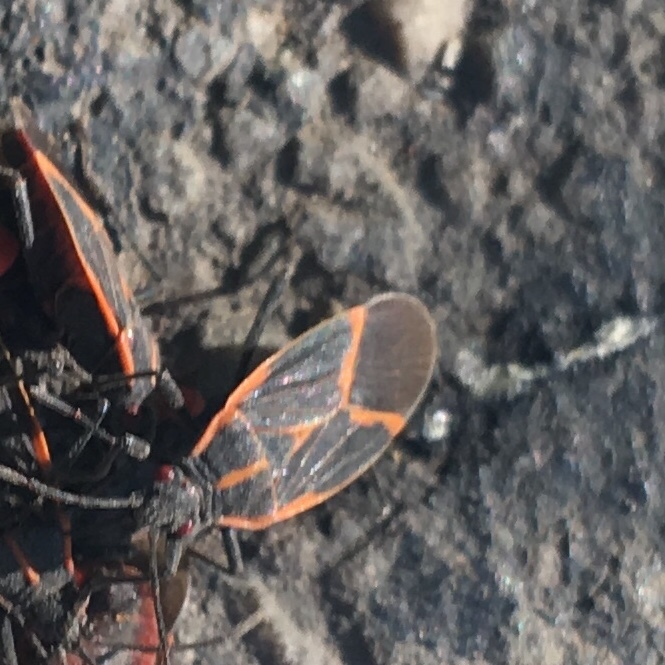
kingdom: Animalia
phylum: Arthropoda
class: Insecta
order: Hemiptera
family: Rhopalidae
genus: Boisea
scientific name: Boisea trivittata
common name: Boxelder bug
